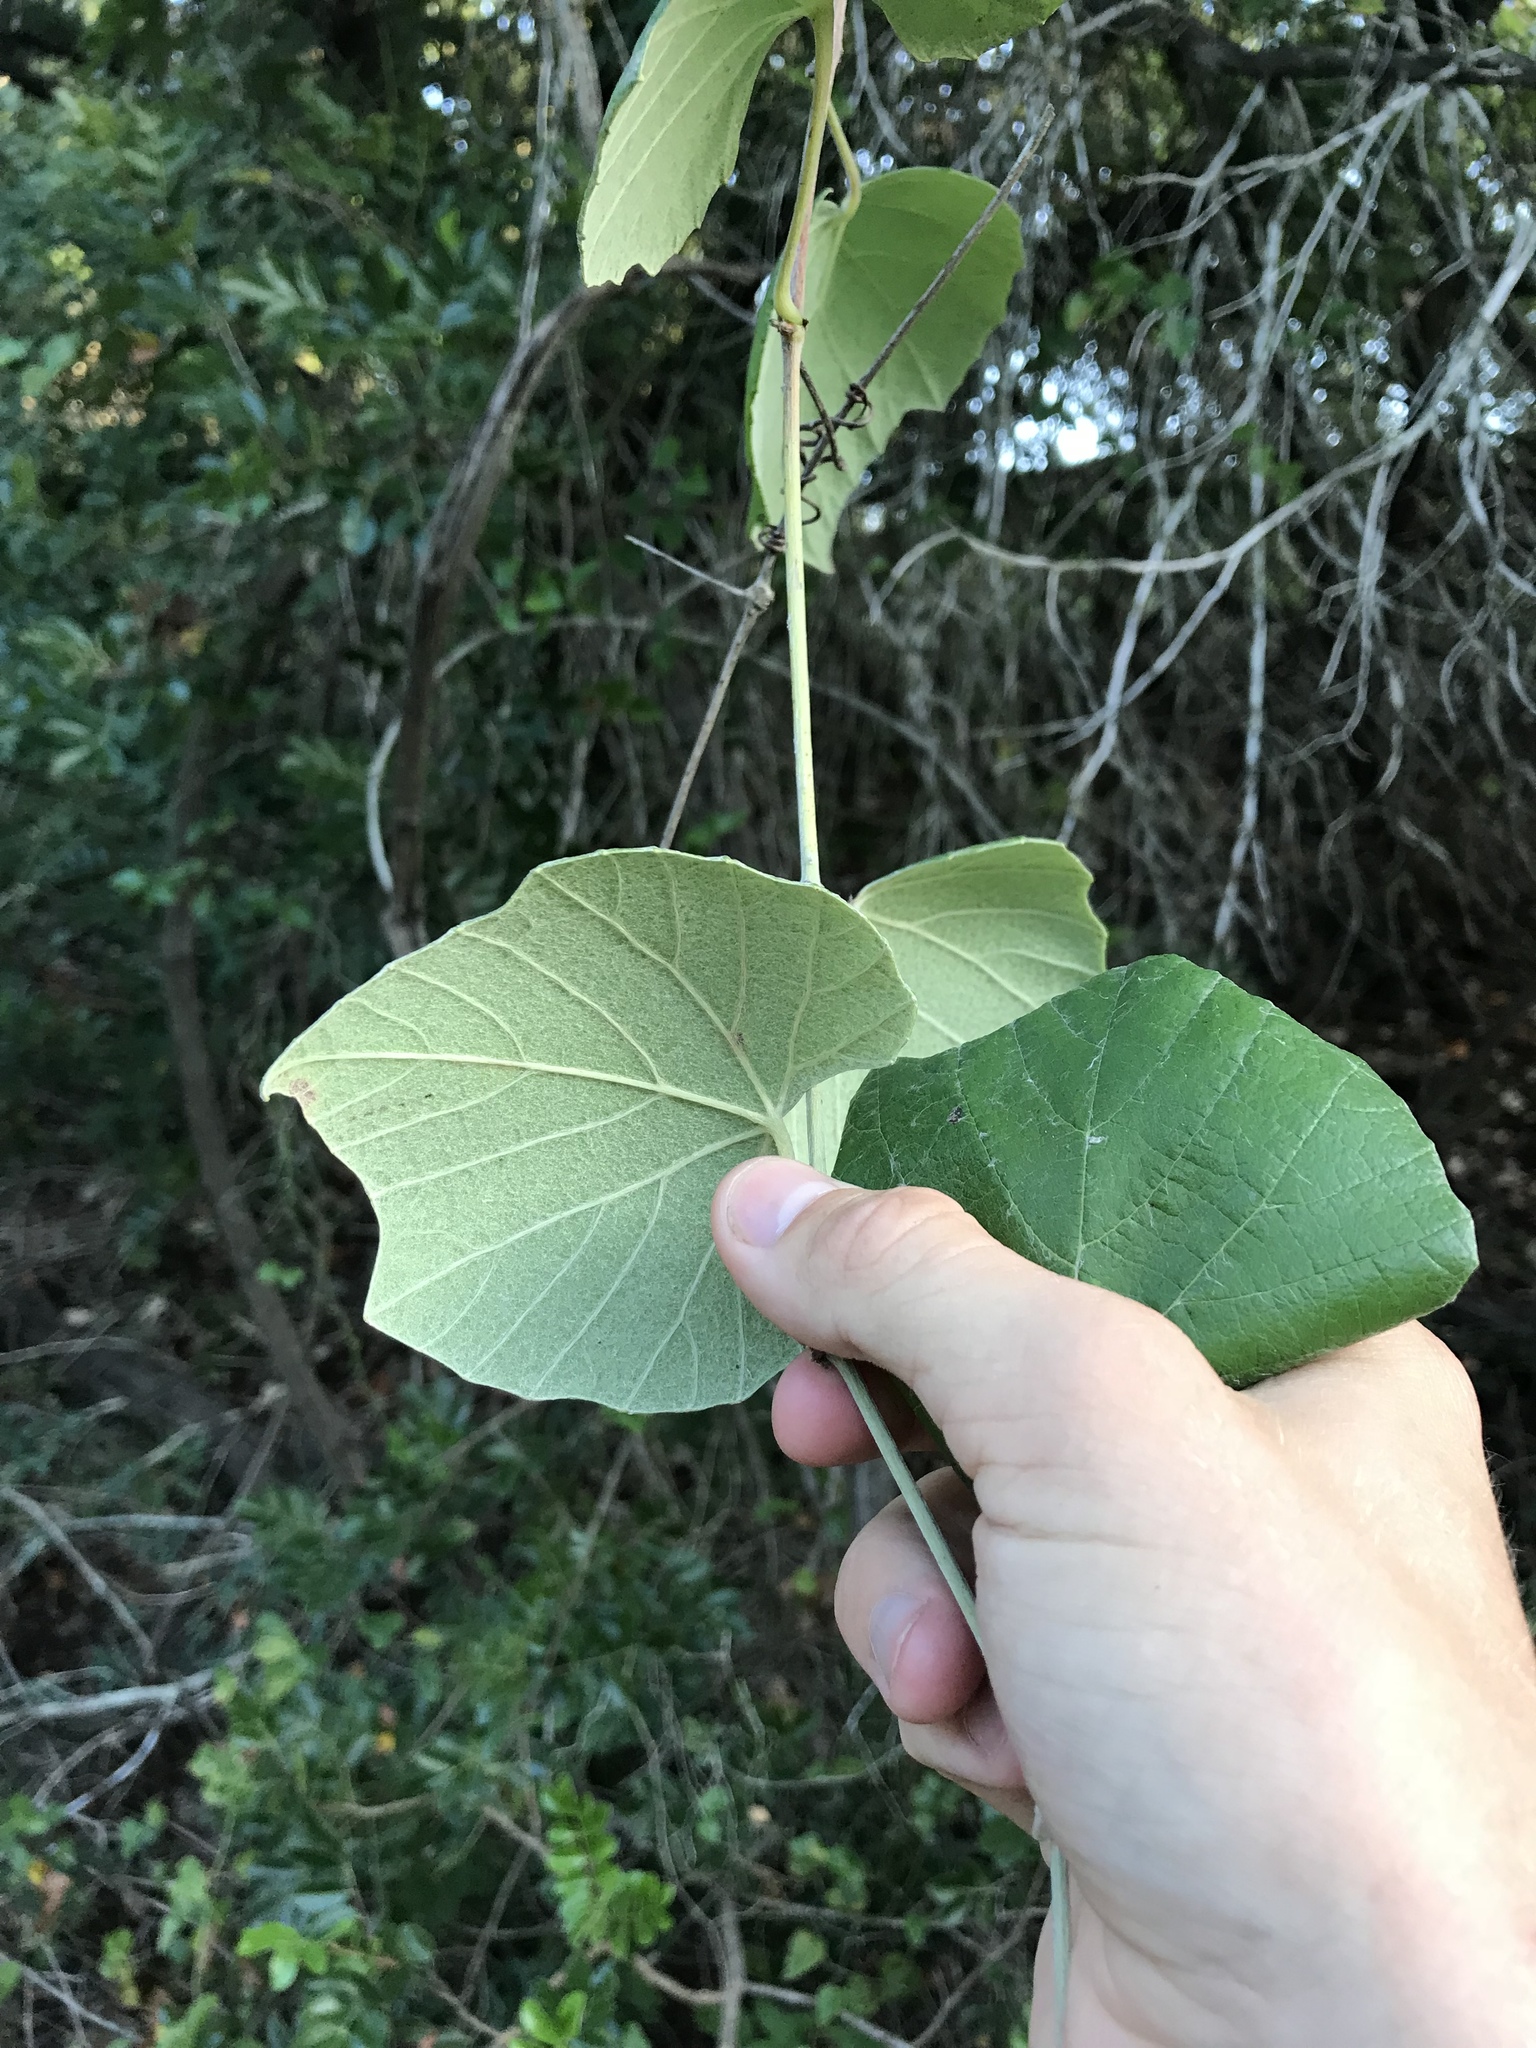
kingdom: Plantae
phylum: Tracheophyta
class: Magnoliopsida
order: Vitales
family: Vitaceae
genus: Vitis
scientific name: Vitis mustangensis
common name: Mustang grape
